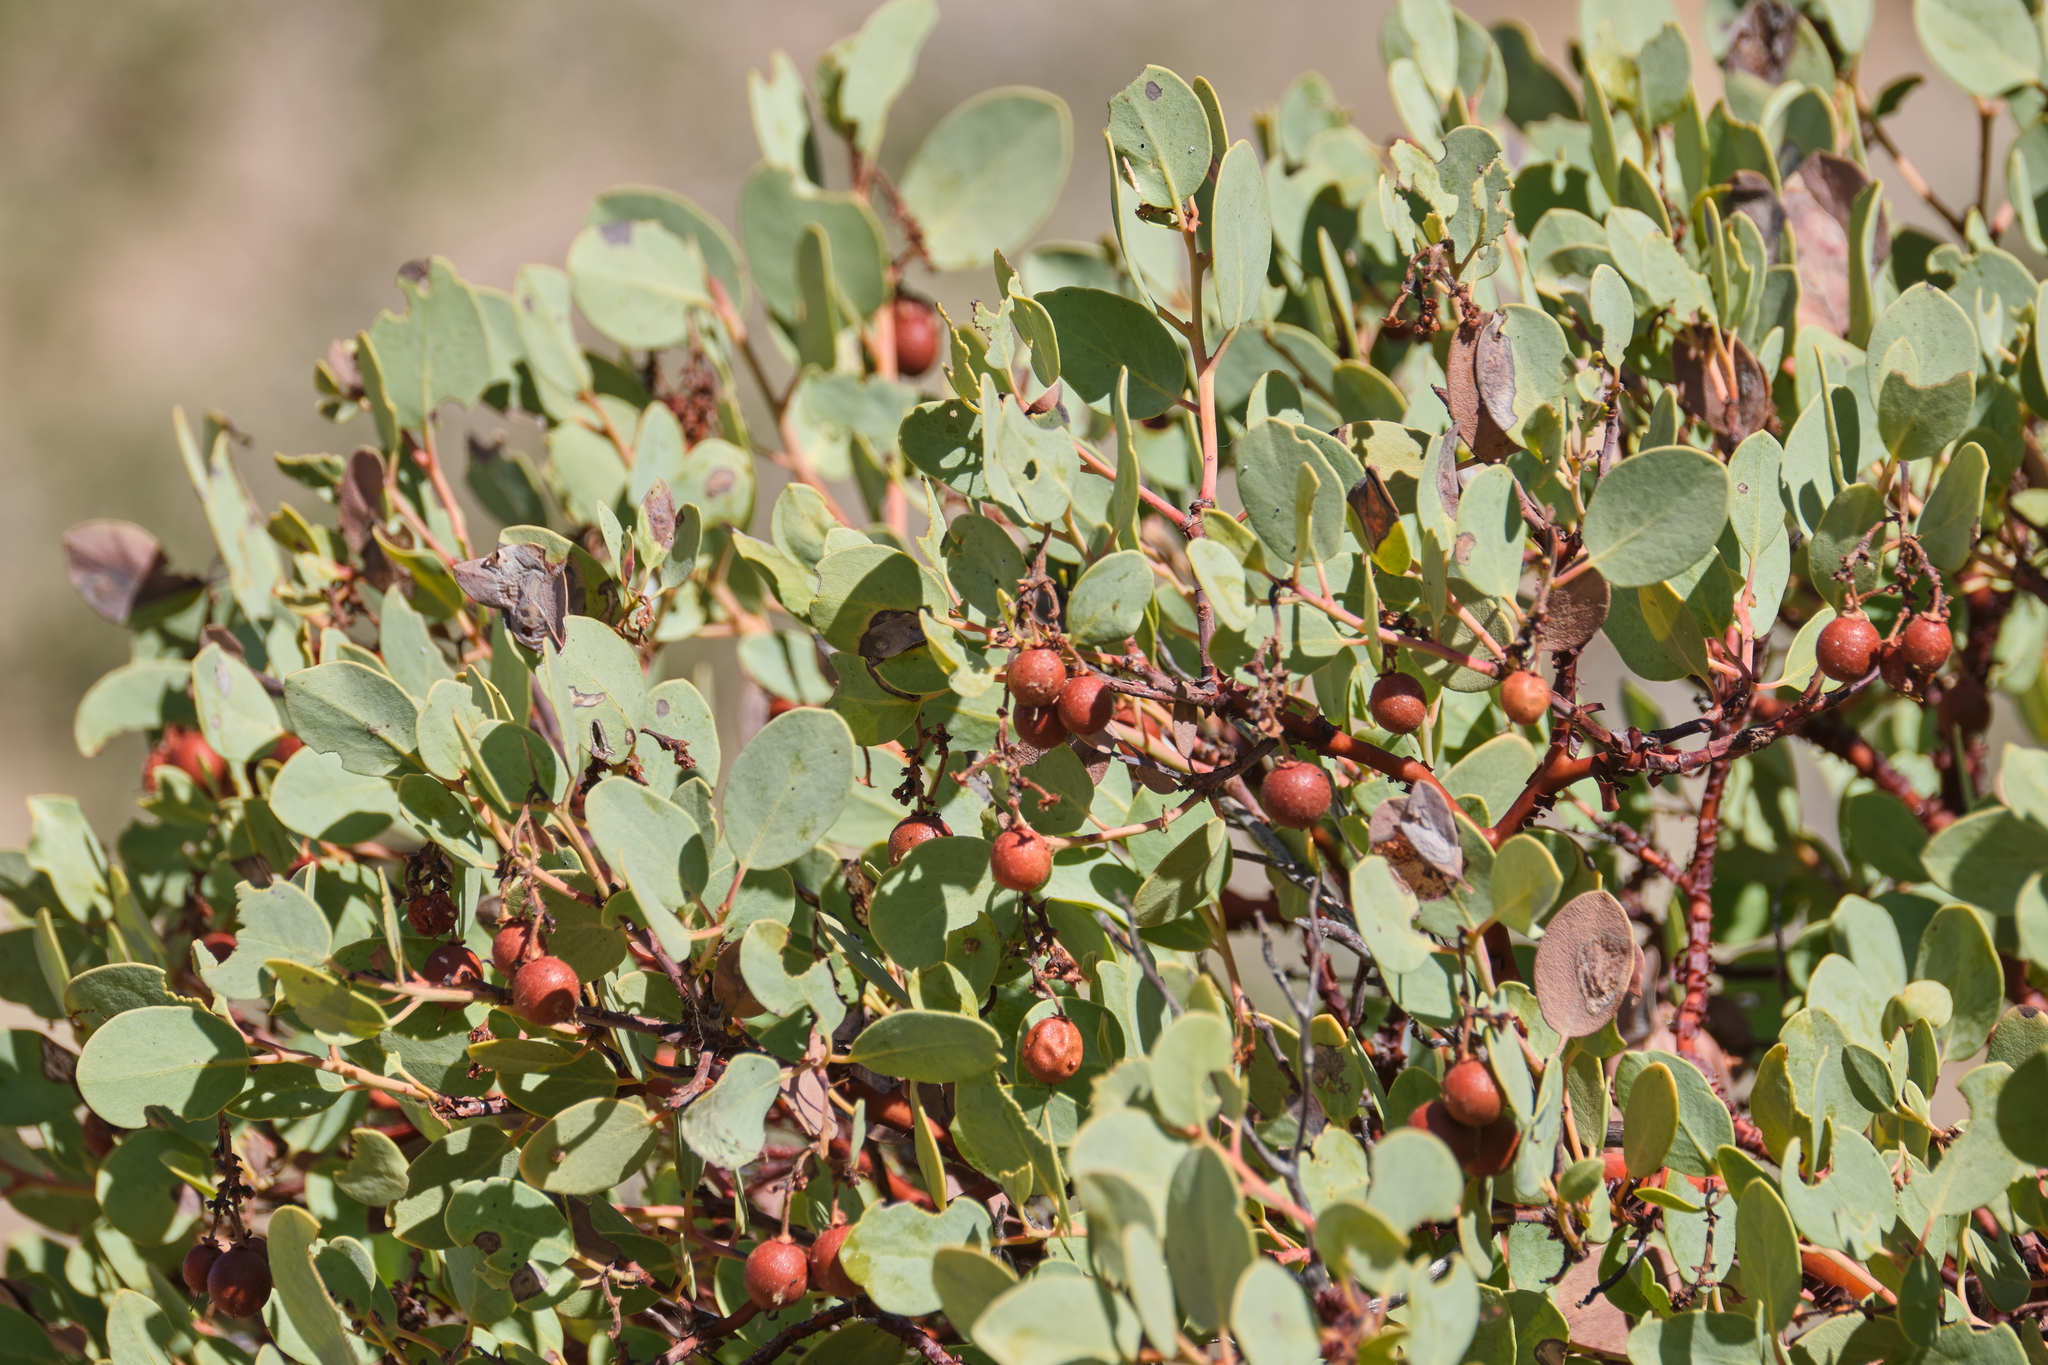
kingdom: Plantae
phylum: Tracheophyta
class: Magnoliopsida
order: Ericales
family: Ericaceae
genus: Arctostaphylos
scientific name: Arctostaphylos glauca
